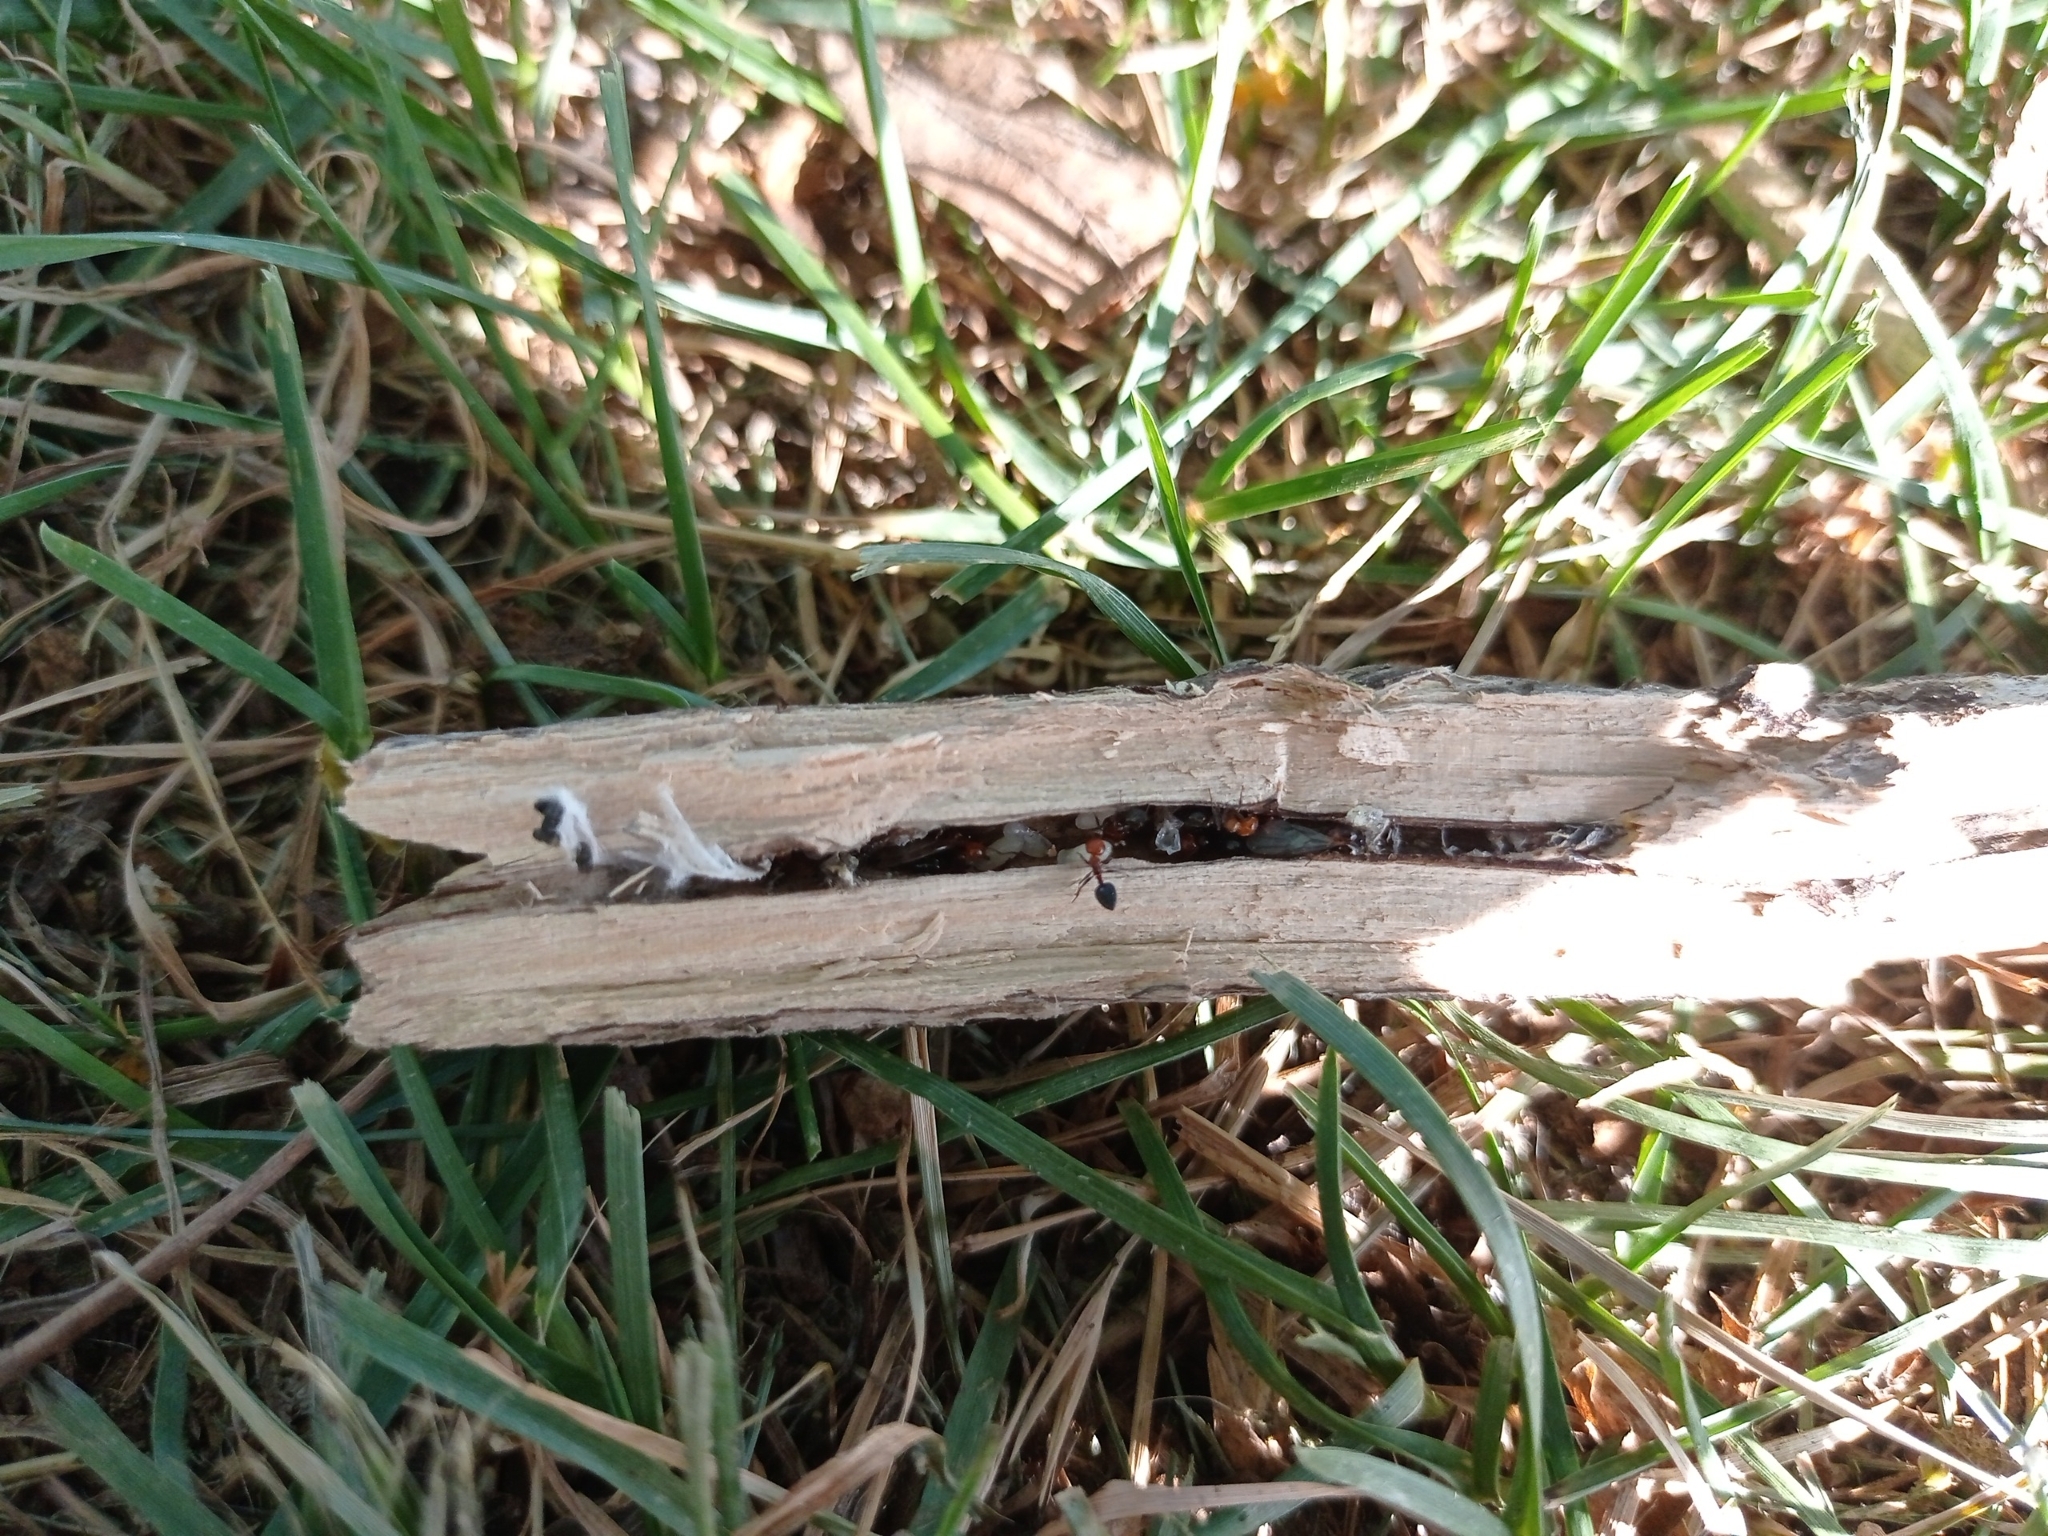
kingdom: Animalia
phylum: Arthropoda
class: Insecta
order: Hymenoptera
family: Formicidae
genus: Crematogaster
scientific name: Crematogaster scutellaris
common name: Fourmi du liège
